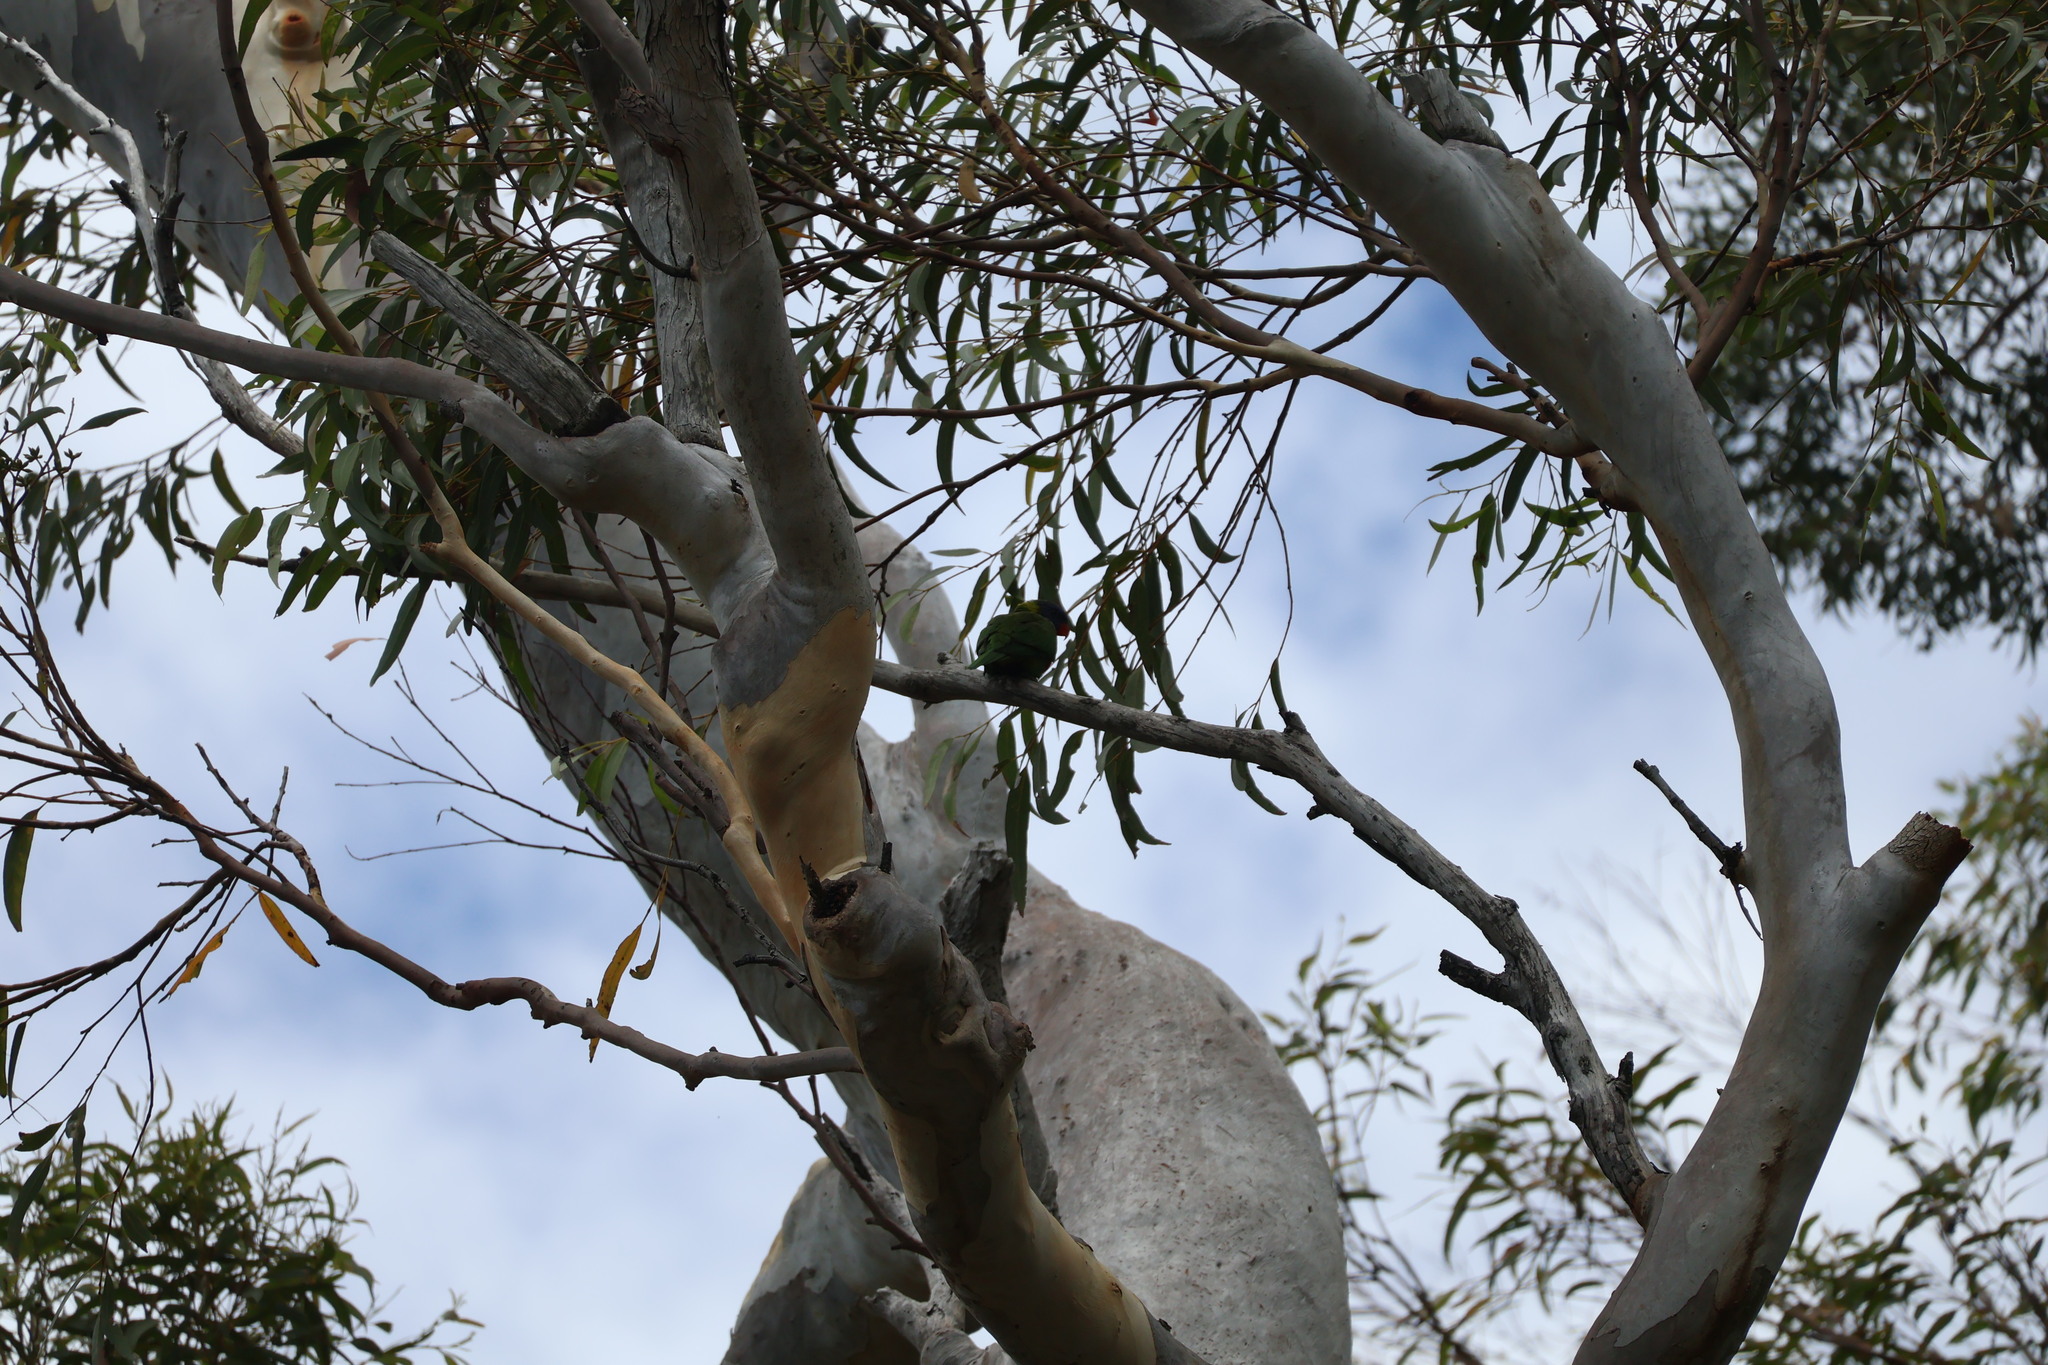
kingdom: Animalia
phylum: Chordata
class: Aves
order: Psittaciformes
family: Psittacidae
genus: Trichoglossus
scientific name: Trichoglossus haematodus
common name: Coconut lorikeet
